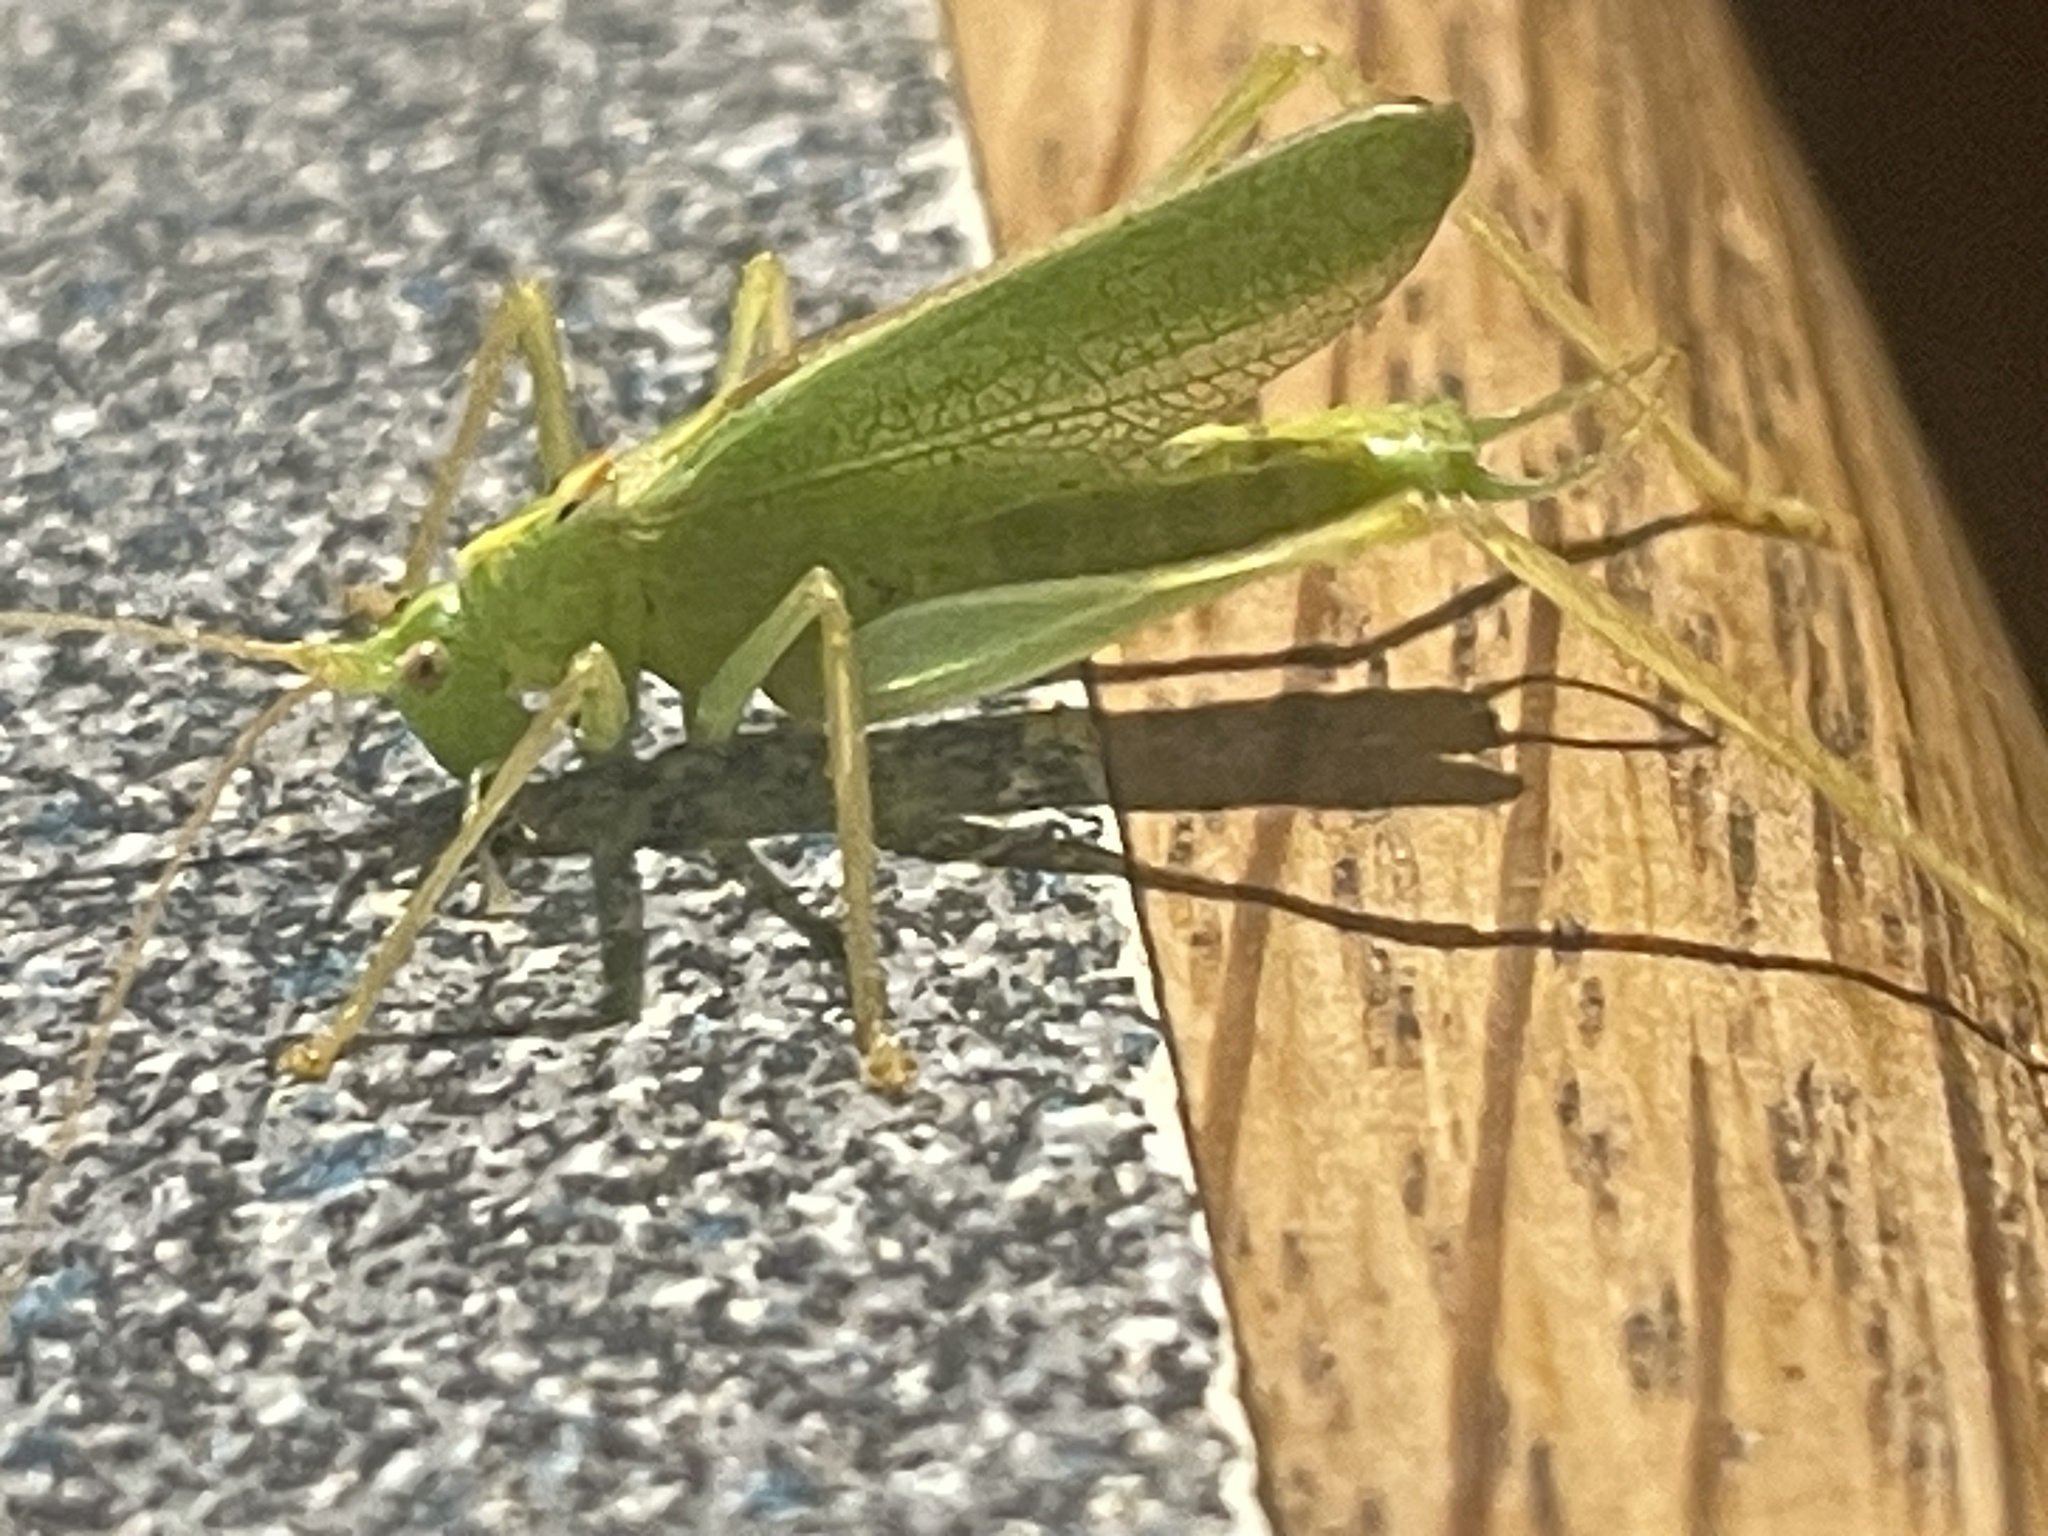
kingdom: Animalia
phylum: Arthropoda
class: Insecta
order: Orthoptera
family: Tettigoniidae
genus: Meconema
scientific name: Meconema thalassinum
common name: Oak bush-cricket
